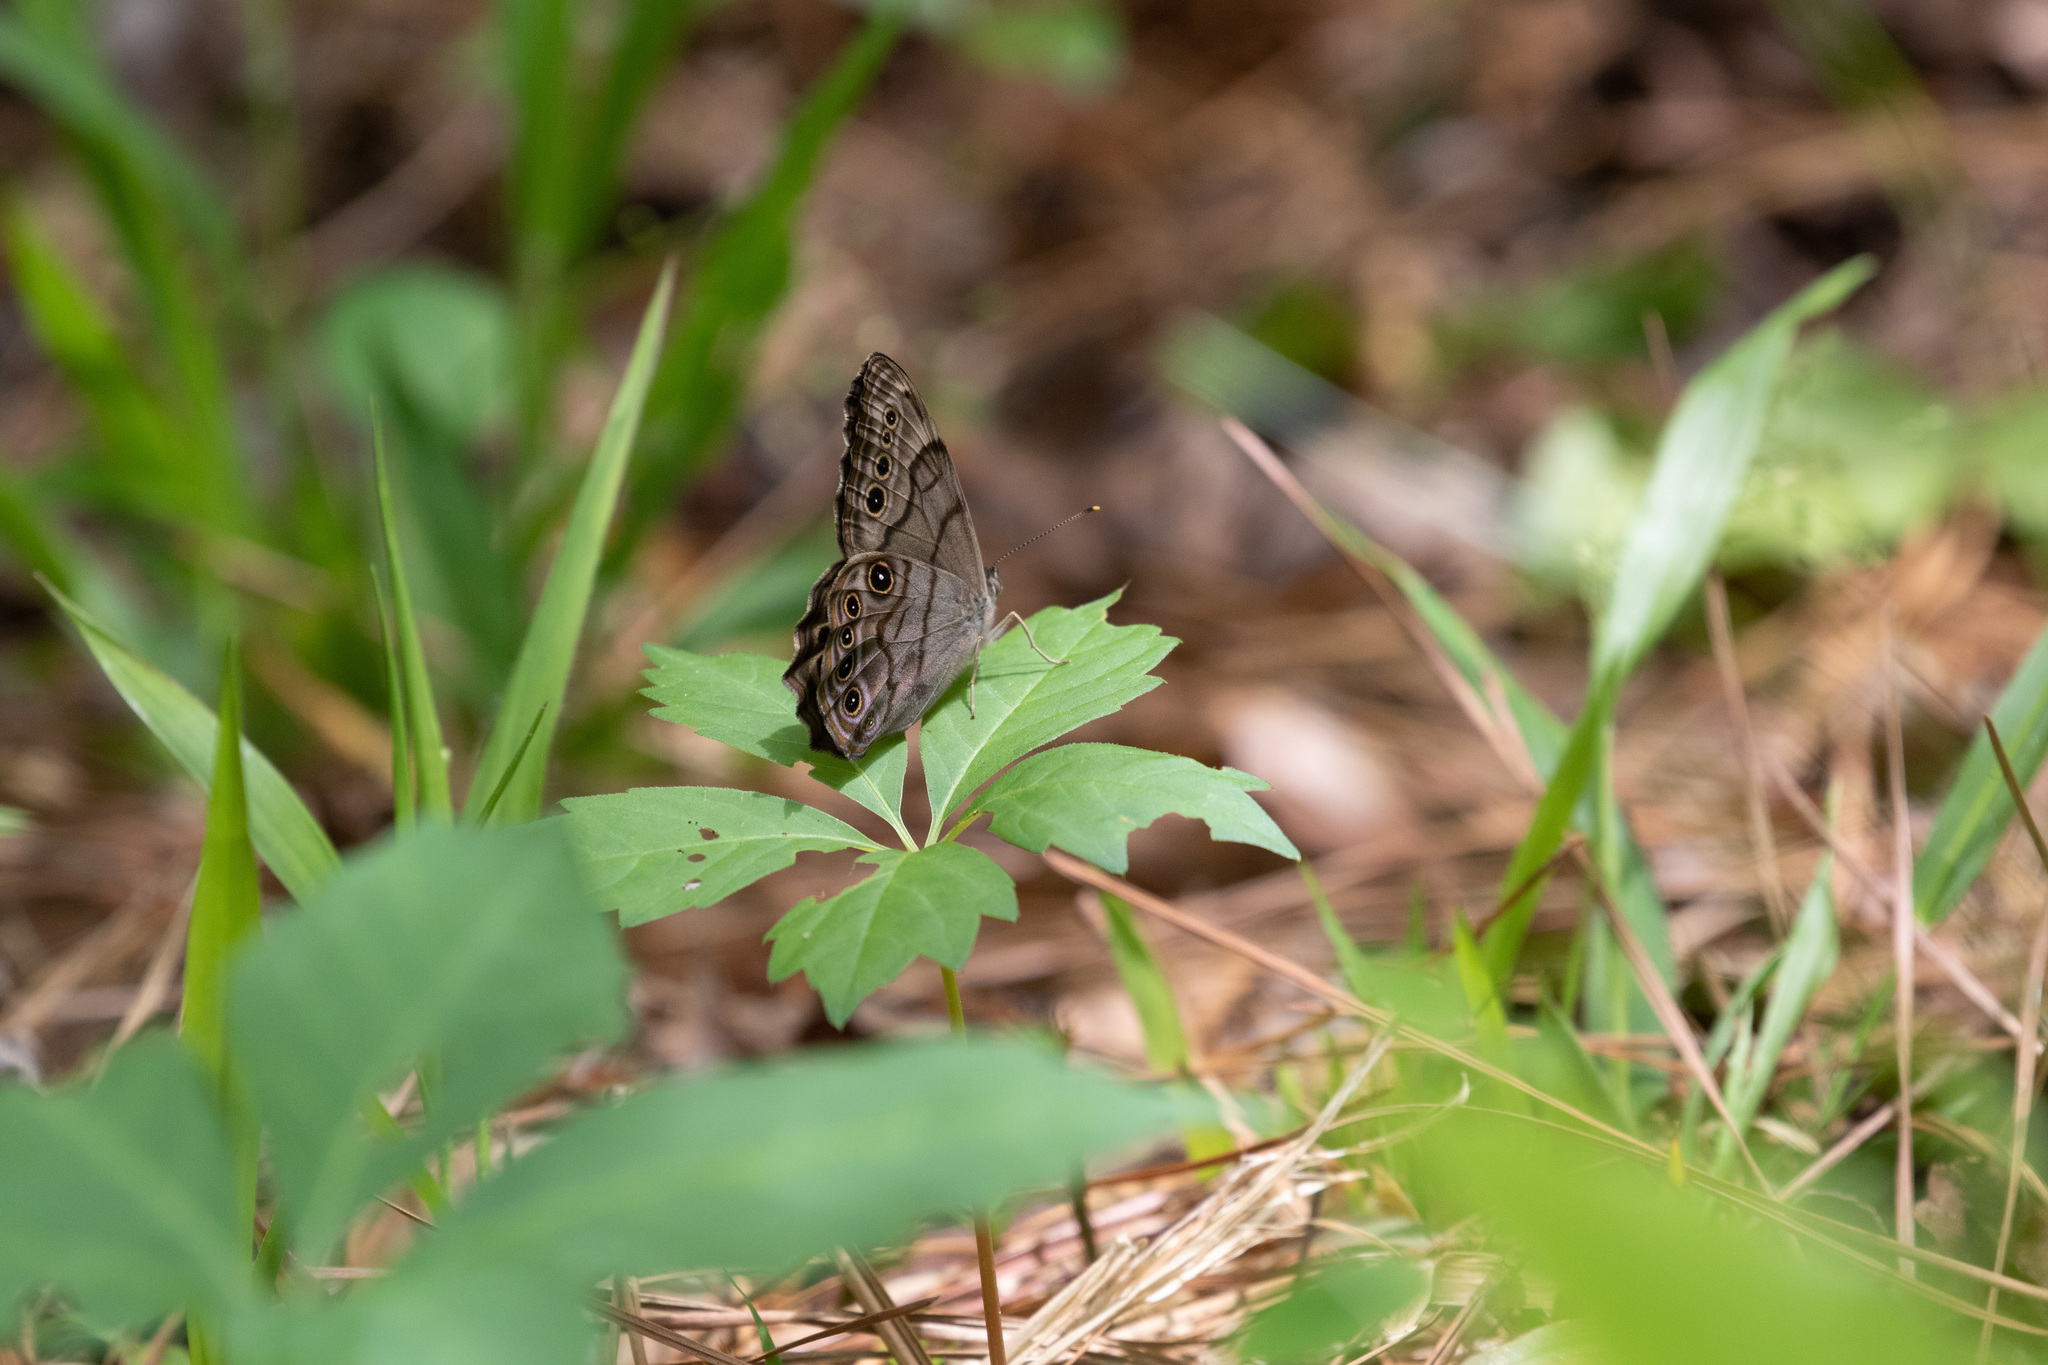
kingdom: Animalia
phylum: Arthropoda
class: Insecta
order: Lepidoptera
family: Nymphalidae
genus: Lethe
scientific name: Lethe anthedon
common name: Northern pearly-eye
